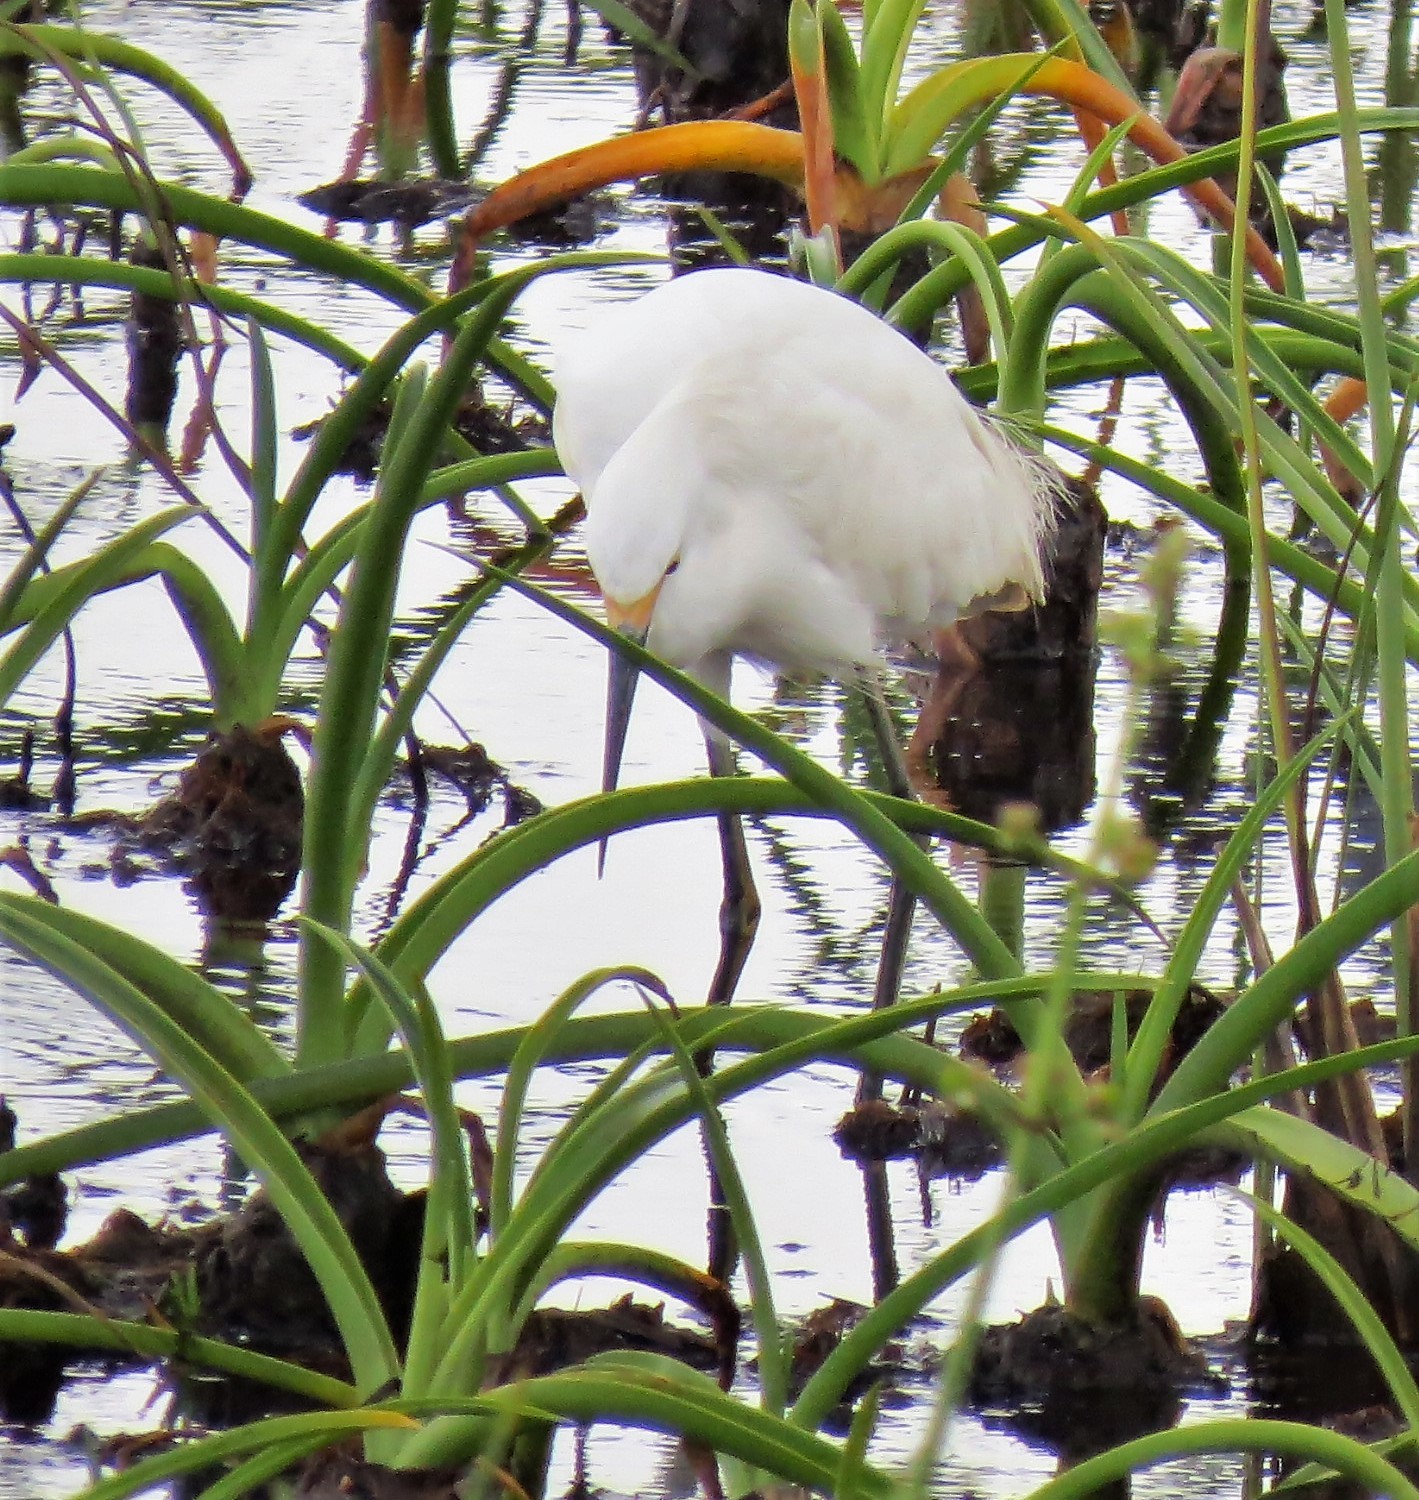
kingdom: Animalia
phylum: Chordata
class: Aves
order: Pelecaniformes
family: Ardeidae
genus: Egretta
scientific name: Egretta thula
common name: Snowy egret
